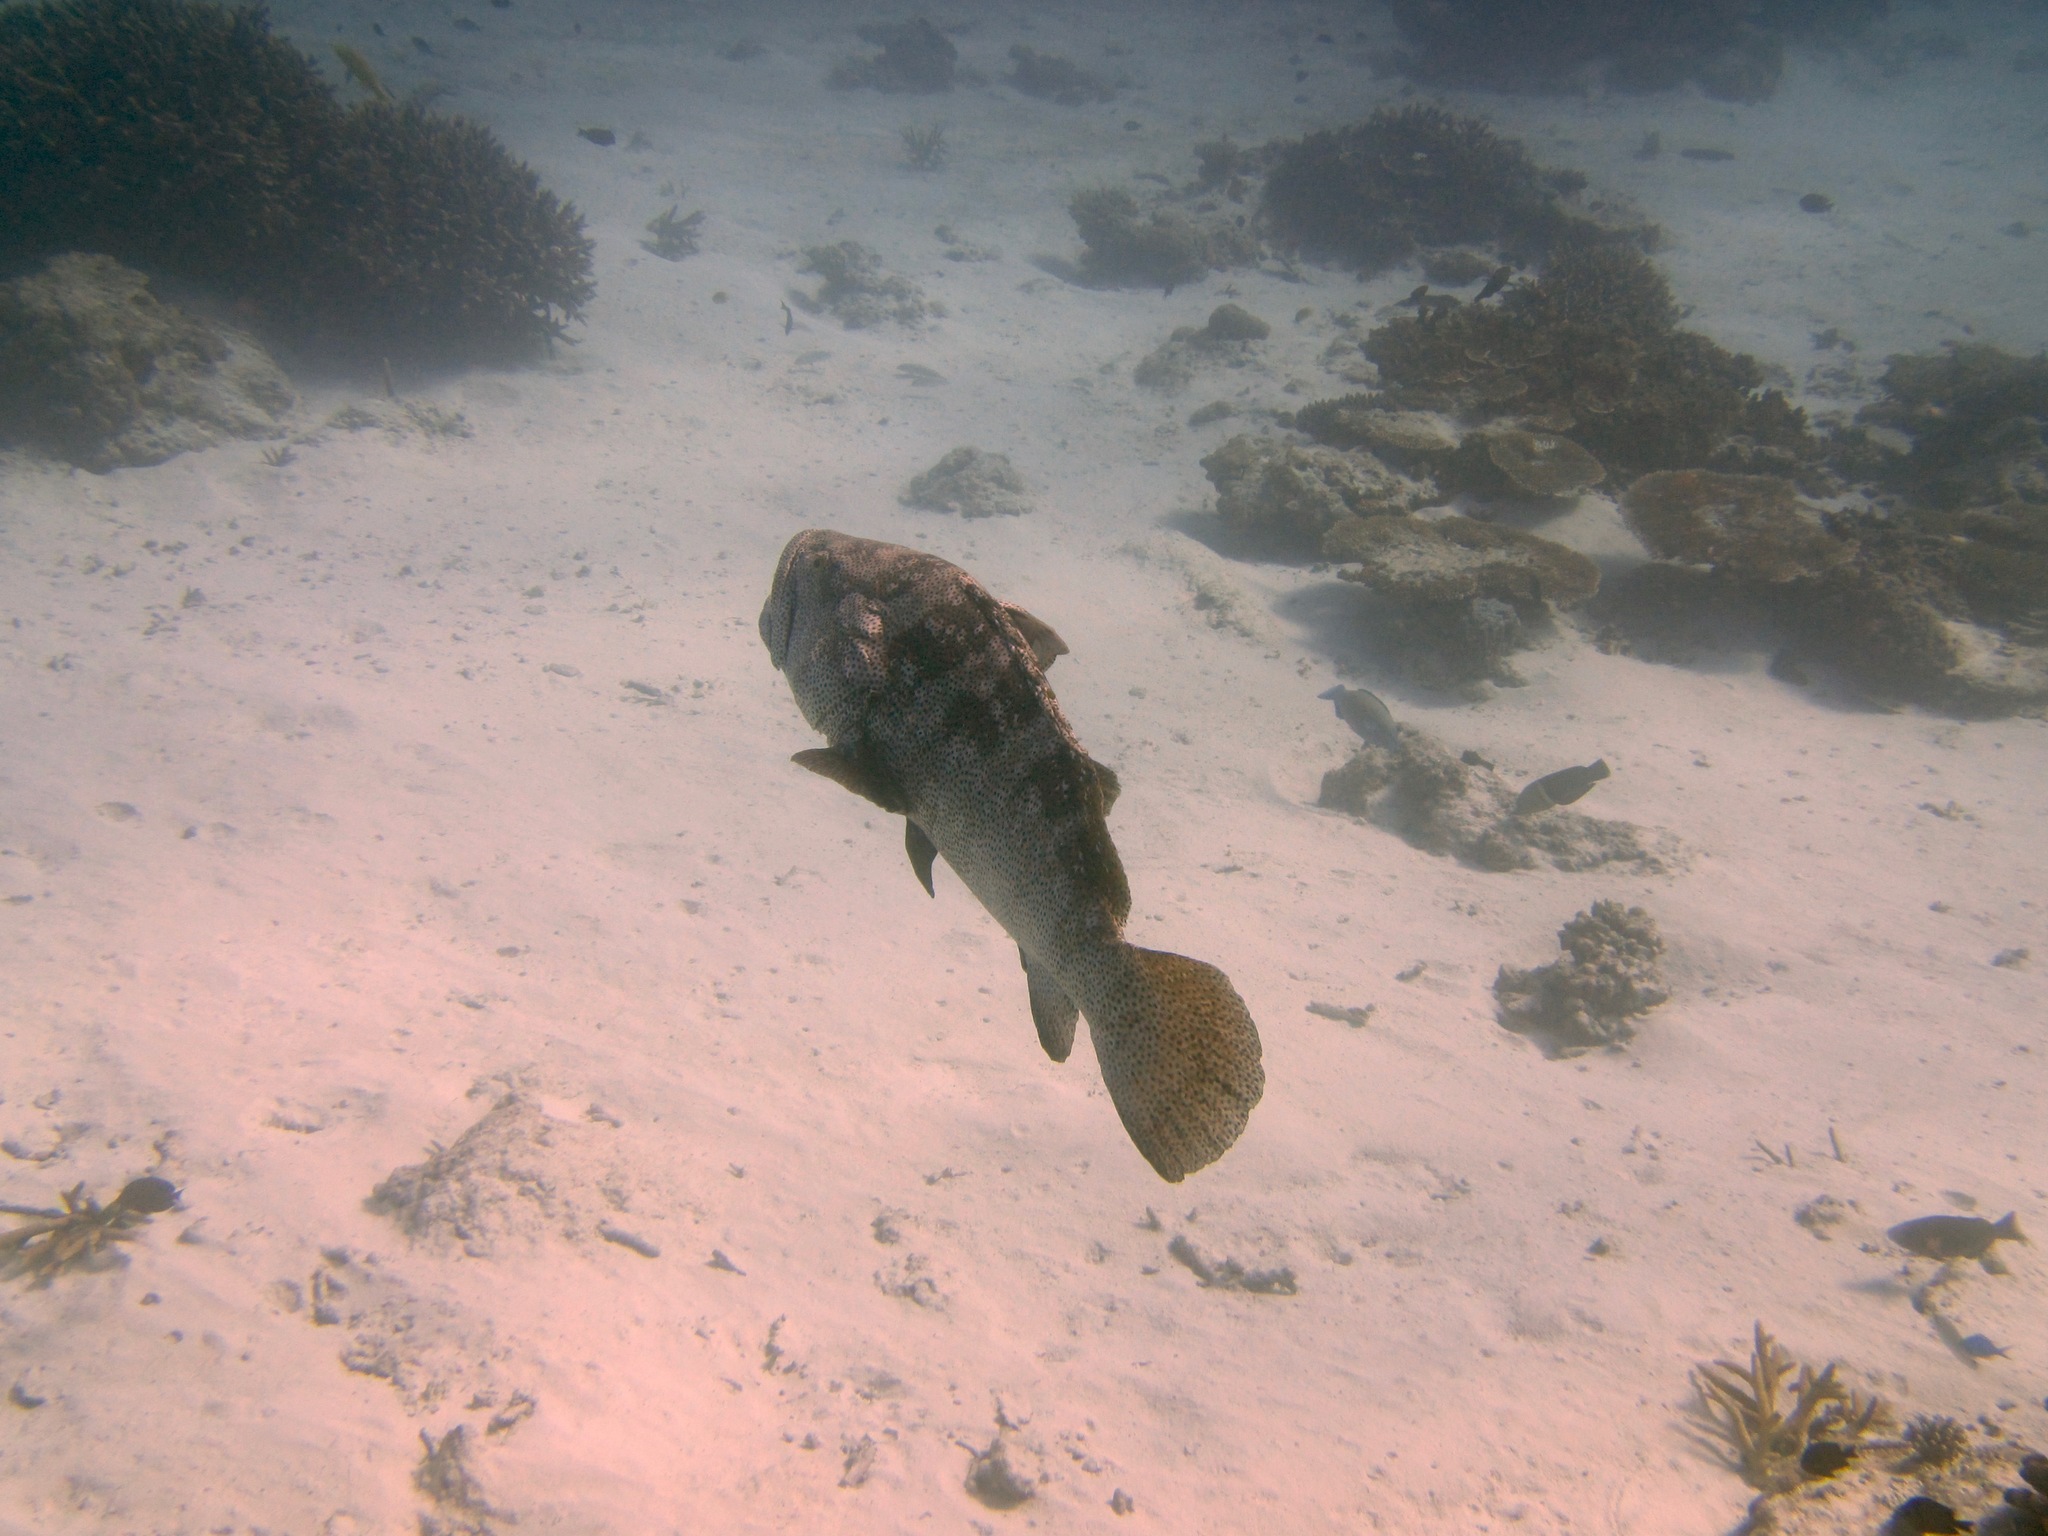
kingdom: Animalia
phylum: Chordata
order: Perciformes
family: Serranidae
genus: Epinephelus
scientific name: Epinephelus malabaricus
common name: Malabar grouper
